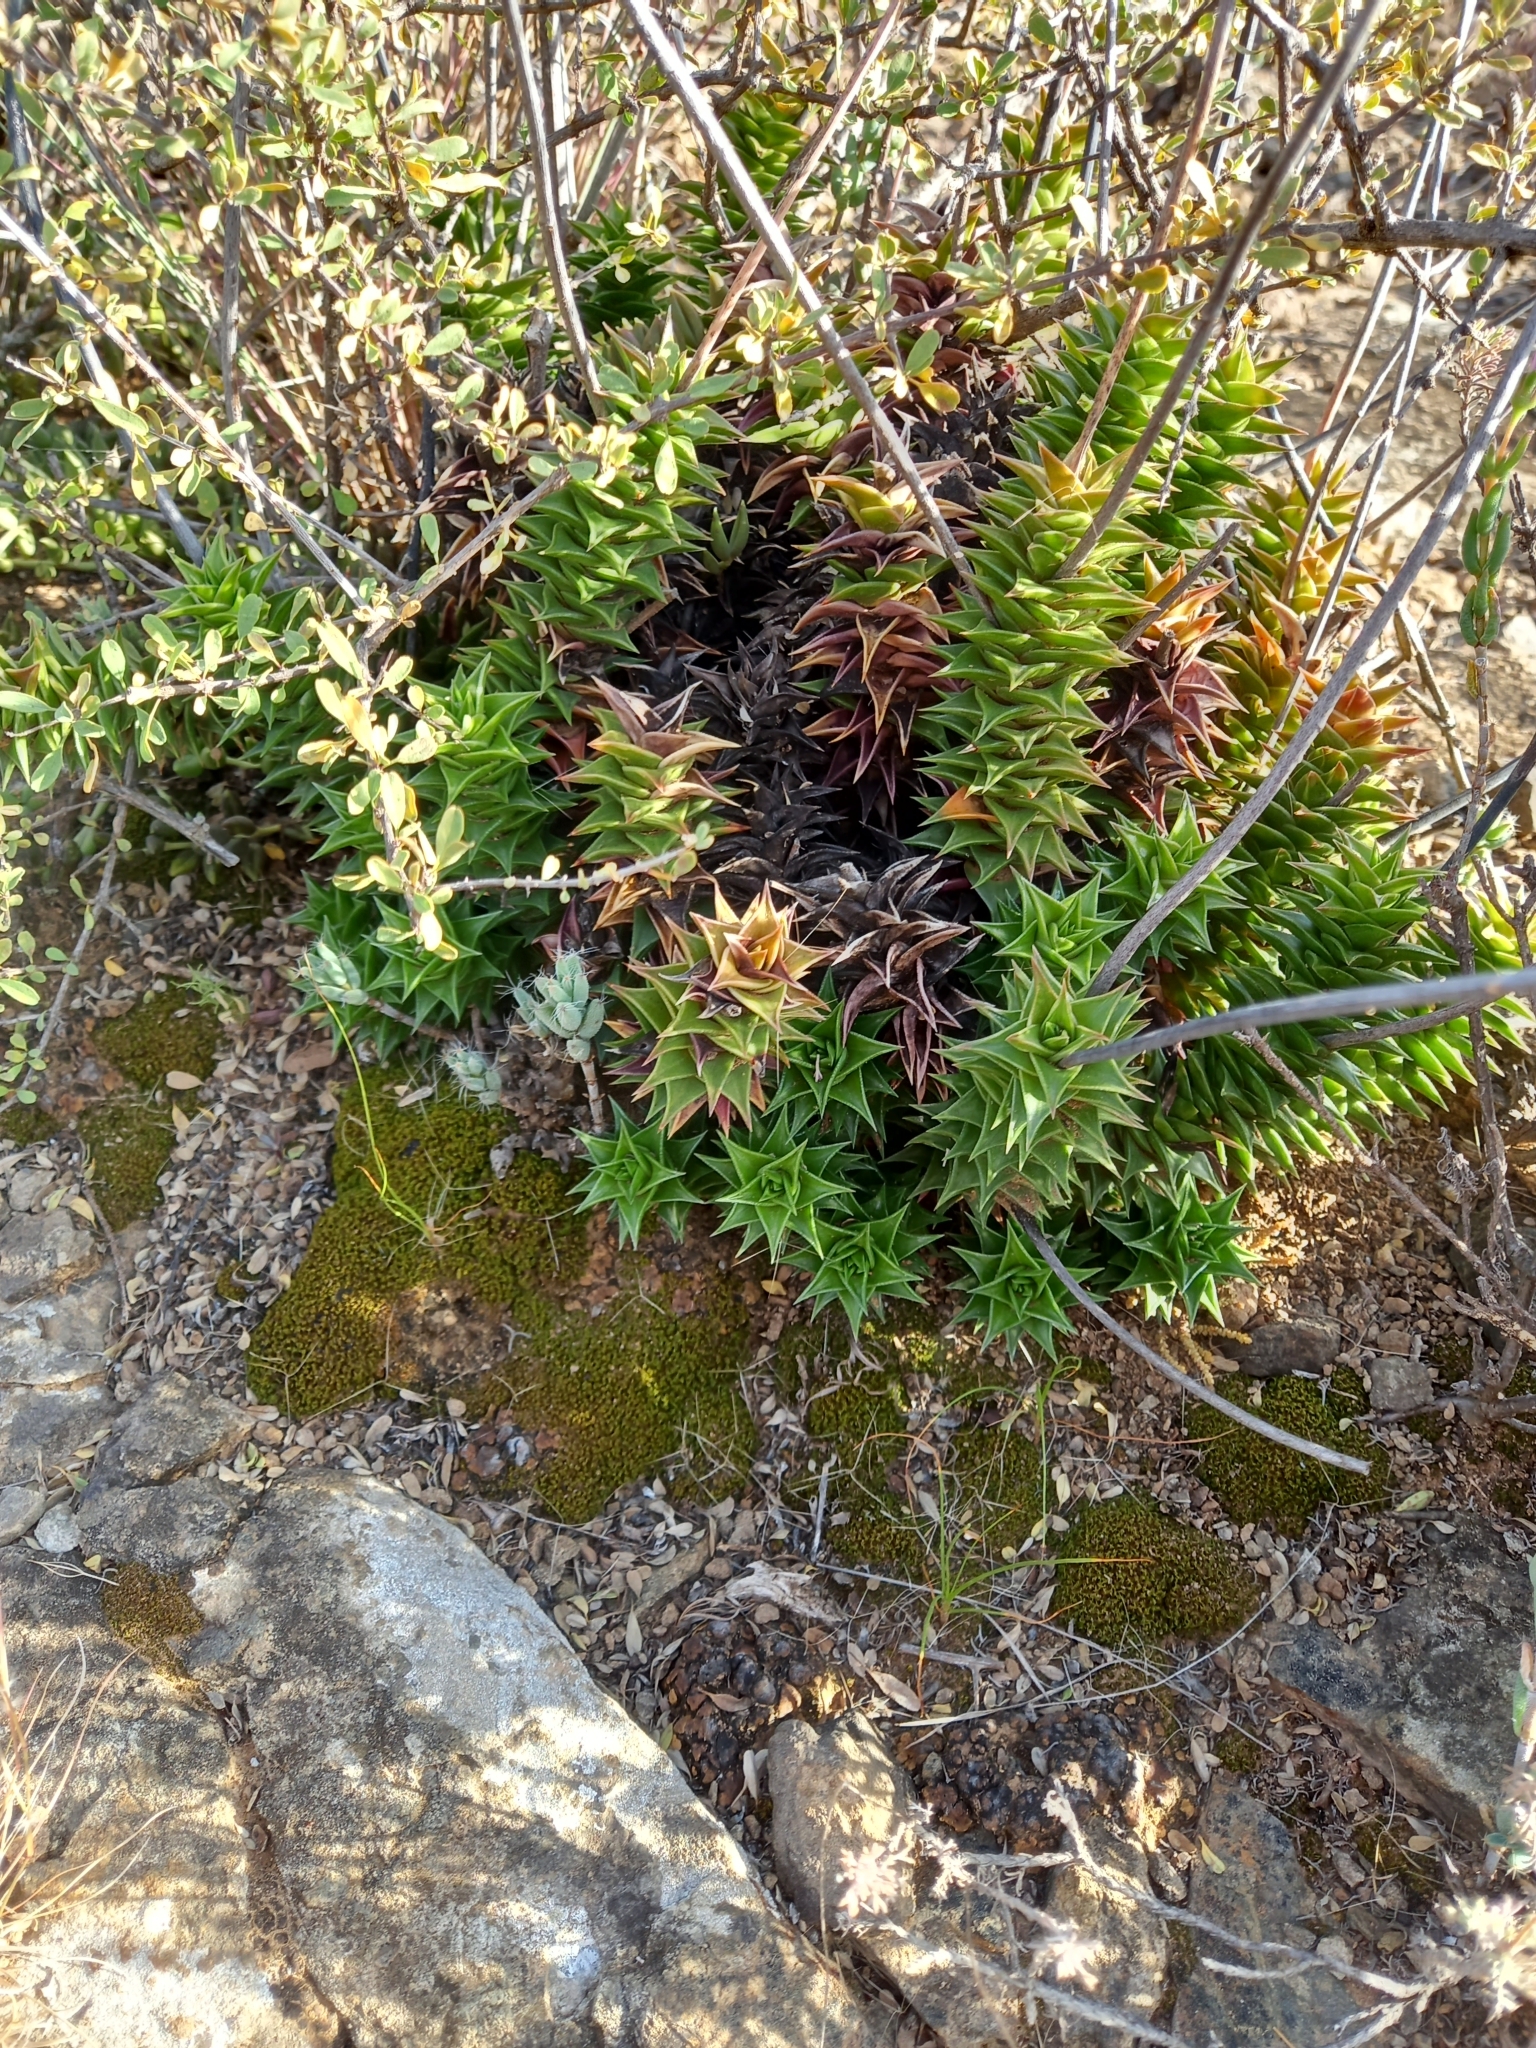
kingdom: Plantae
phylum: Tracheophyta
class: Liliopsida
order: Asparagales
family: Asphodelaceae
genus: Astroloba
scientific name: Astroloba foliolosa
